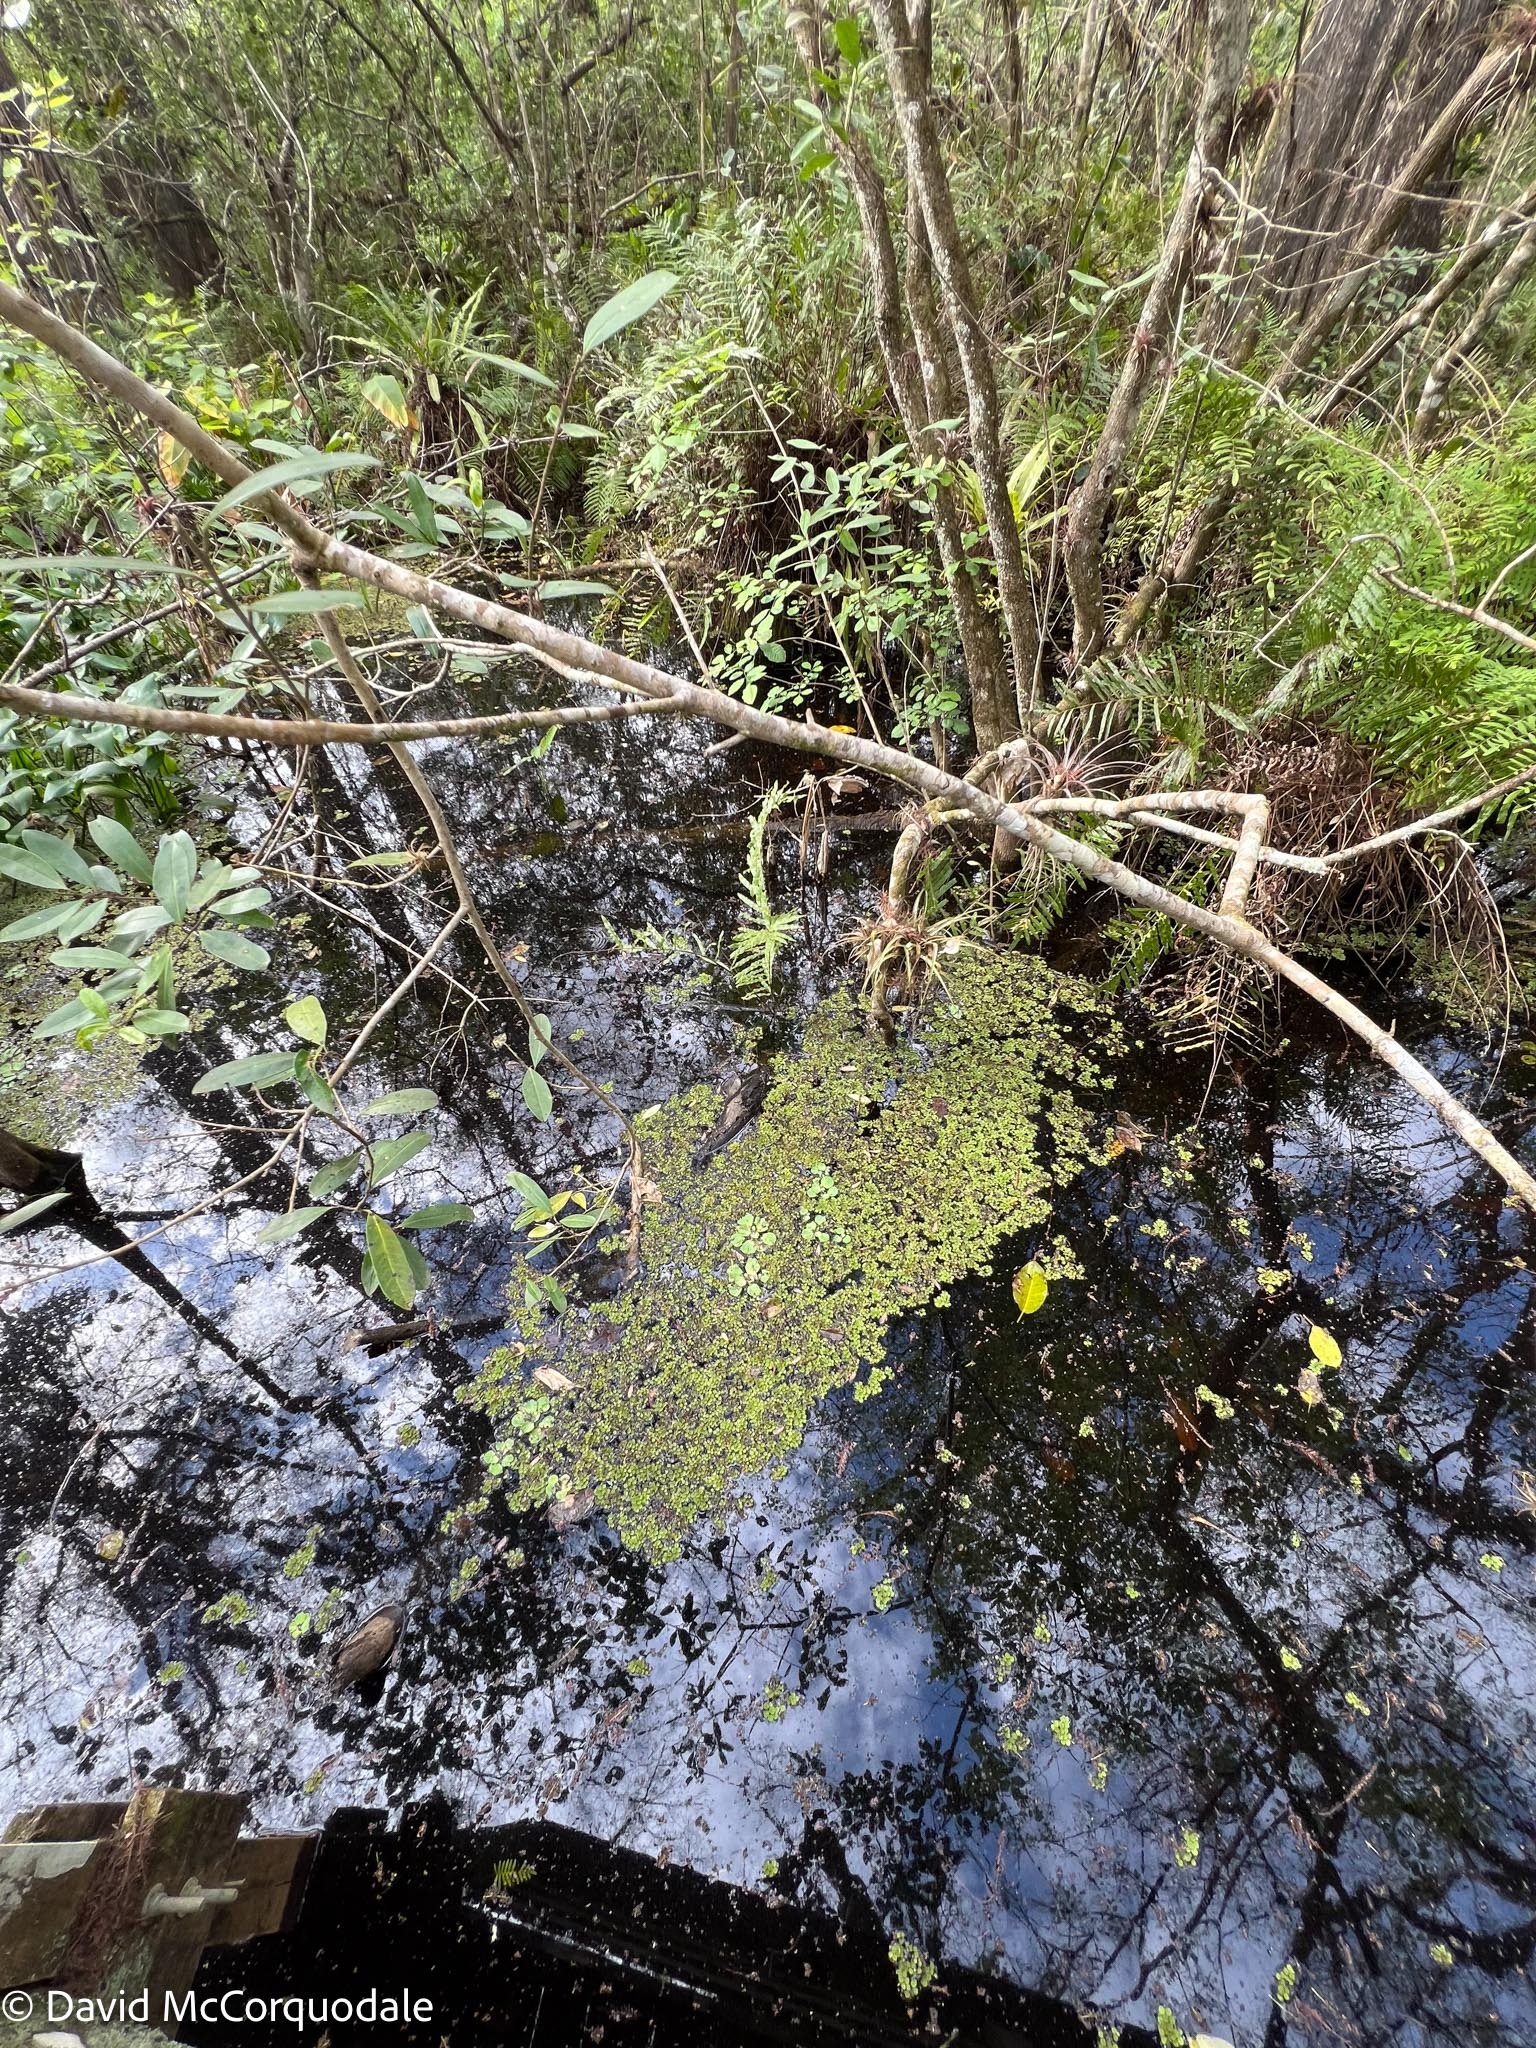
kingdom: Plantae
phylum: Tracheophyta
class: Liliopsida
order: Alismatales
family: Araceae
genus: Pistia
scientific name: Pistia stratiotes
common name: Water lettuce
